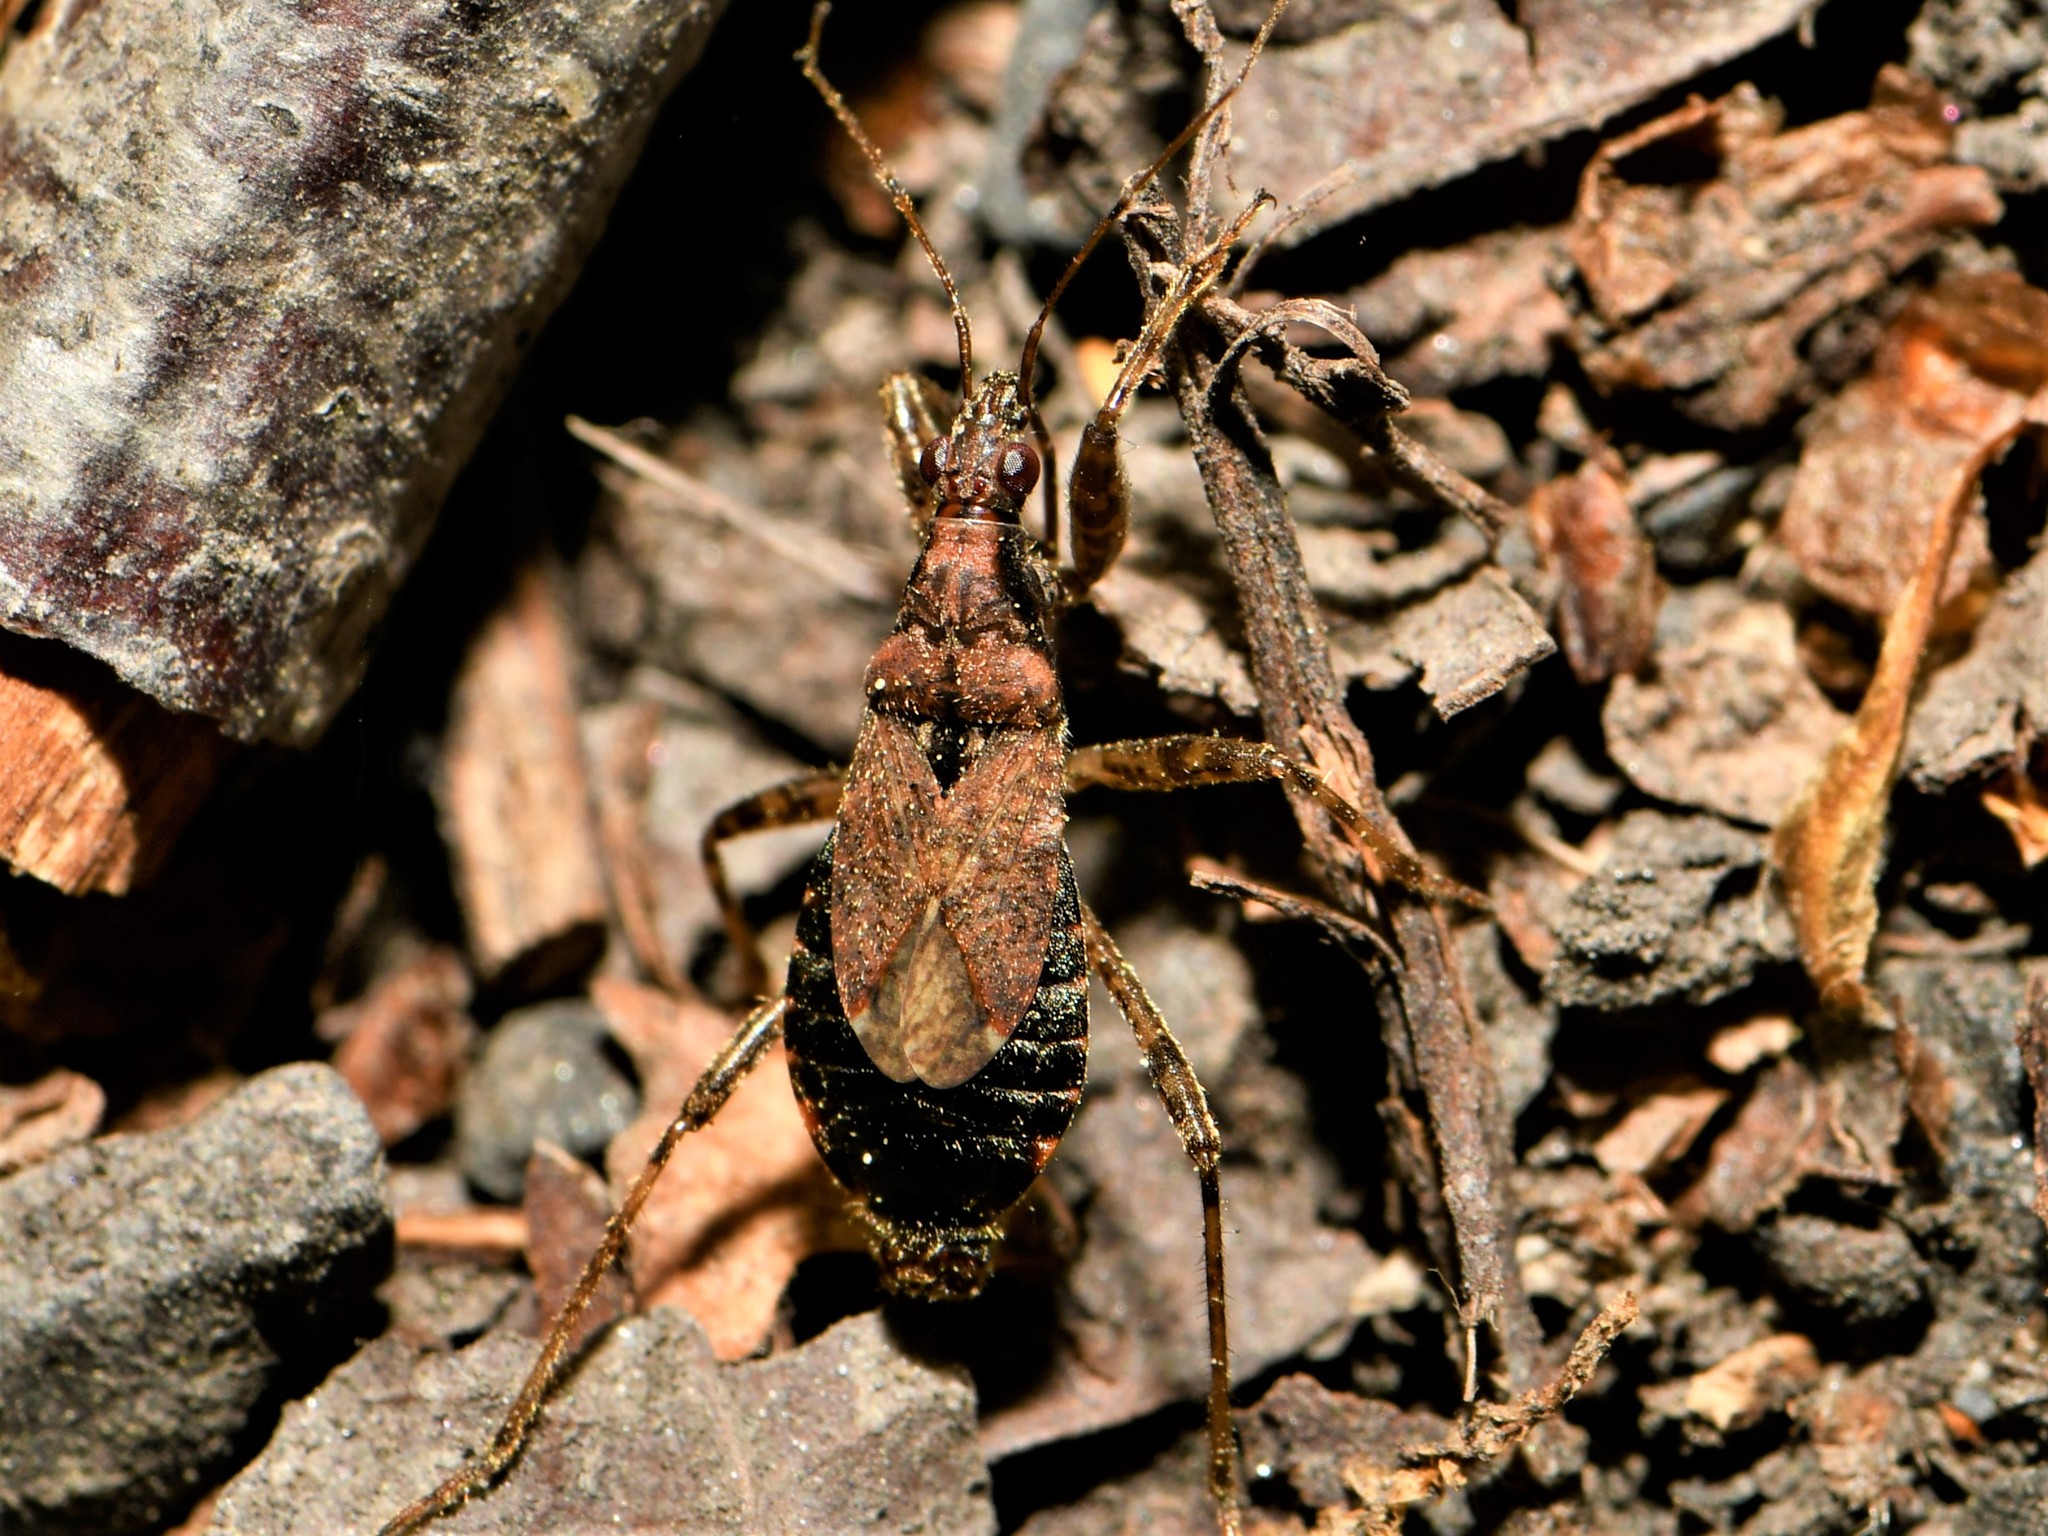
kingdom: Animalia
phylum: Arthropoda
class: Insecta
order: Hemiptera
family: Nabidae
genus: Himacerus
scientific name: Himacerus mirmicoides
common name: Ant damsel bug
